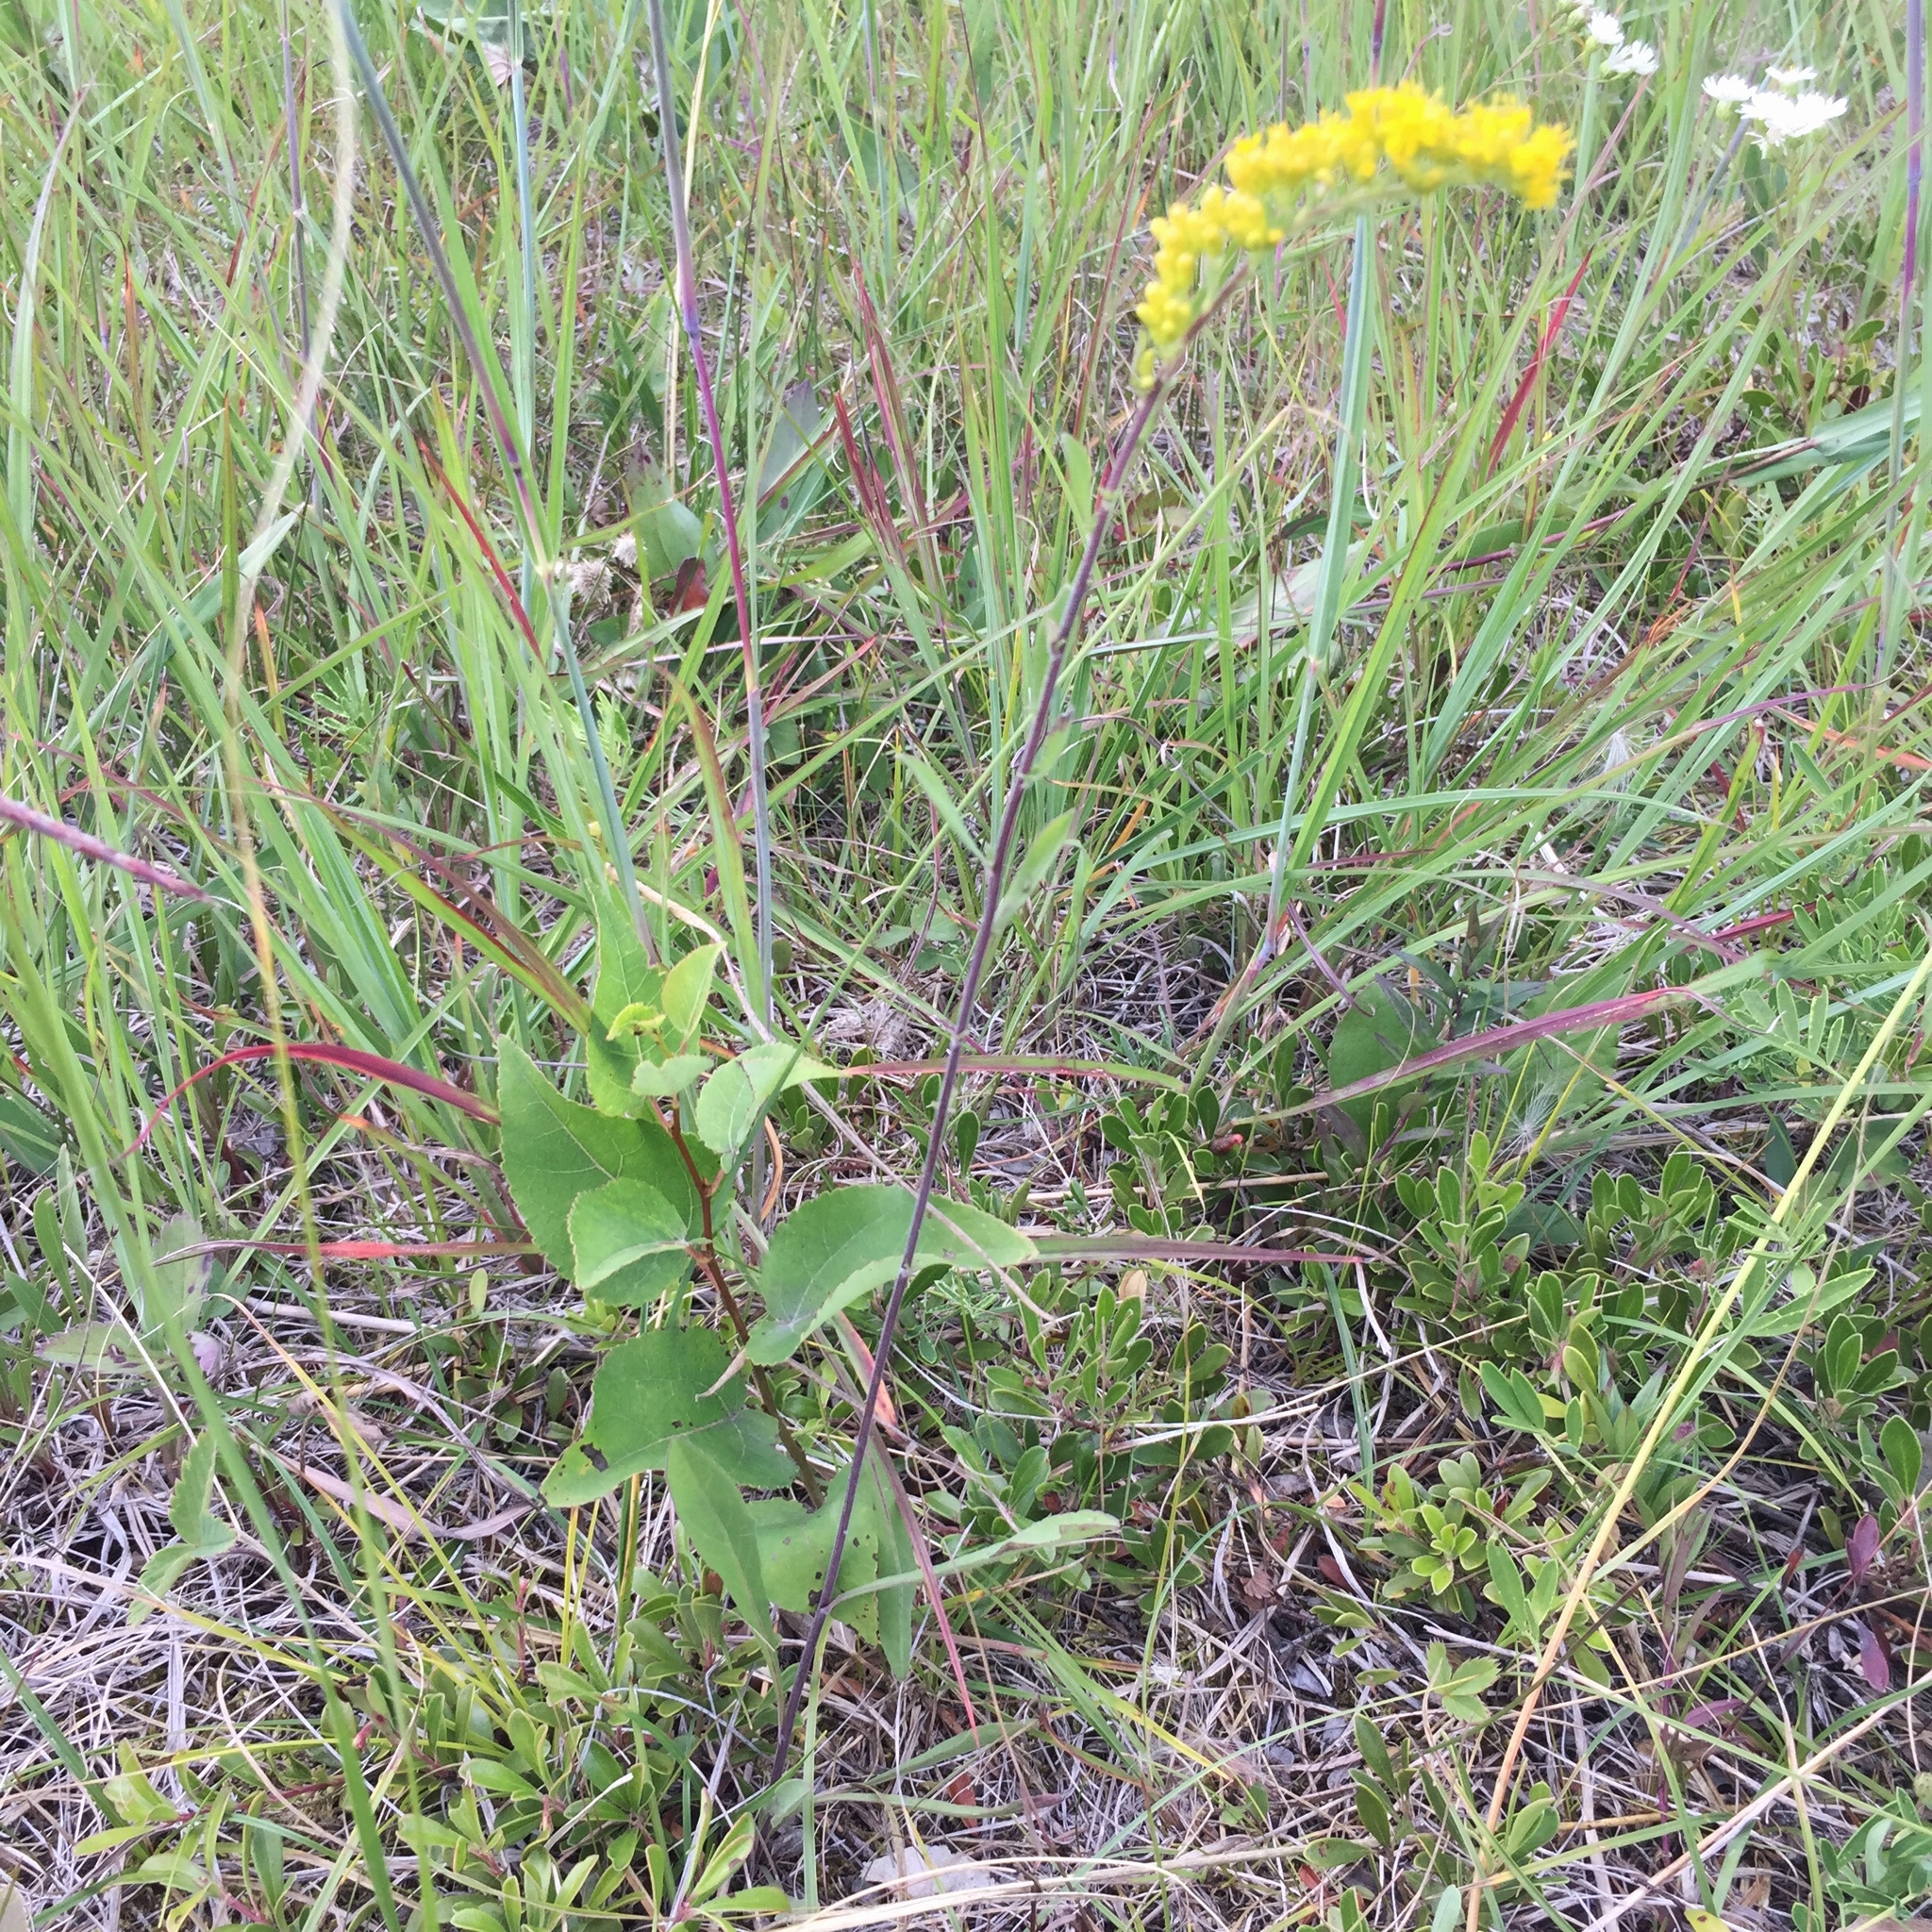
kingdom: Plantae
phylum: Tracheophyta
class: Magnoliopsida
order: Asterales
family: Asteraceae
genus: Solidago
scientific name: Solidago nemoralis
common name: Grey goldenrod
